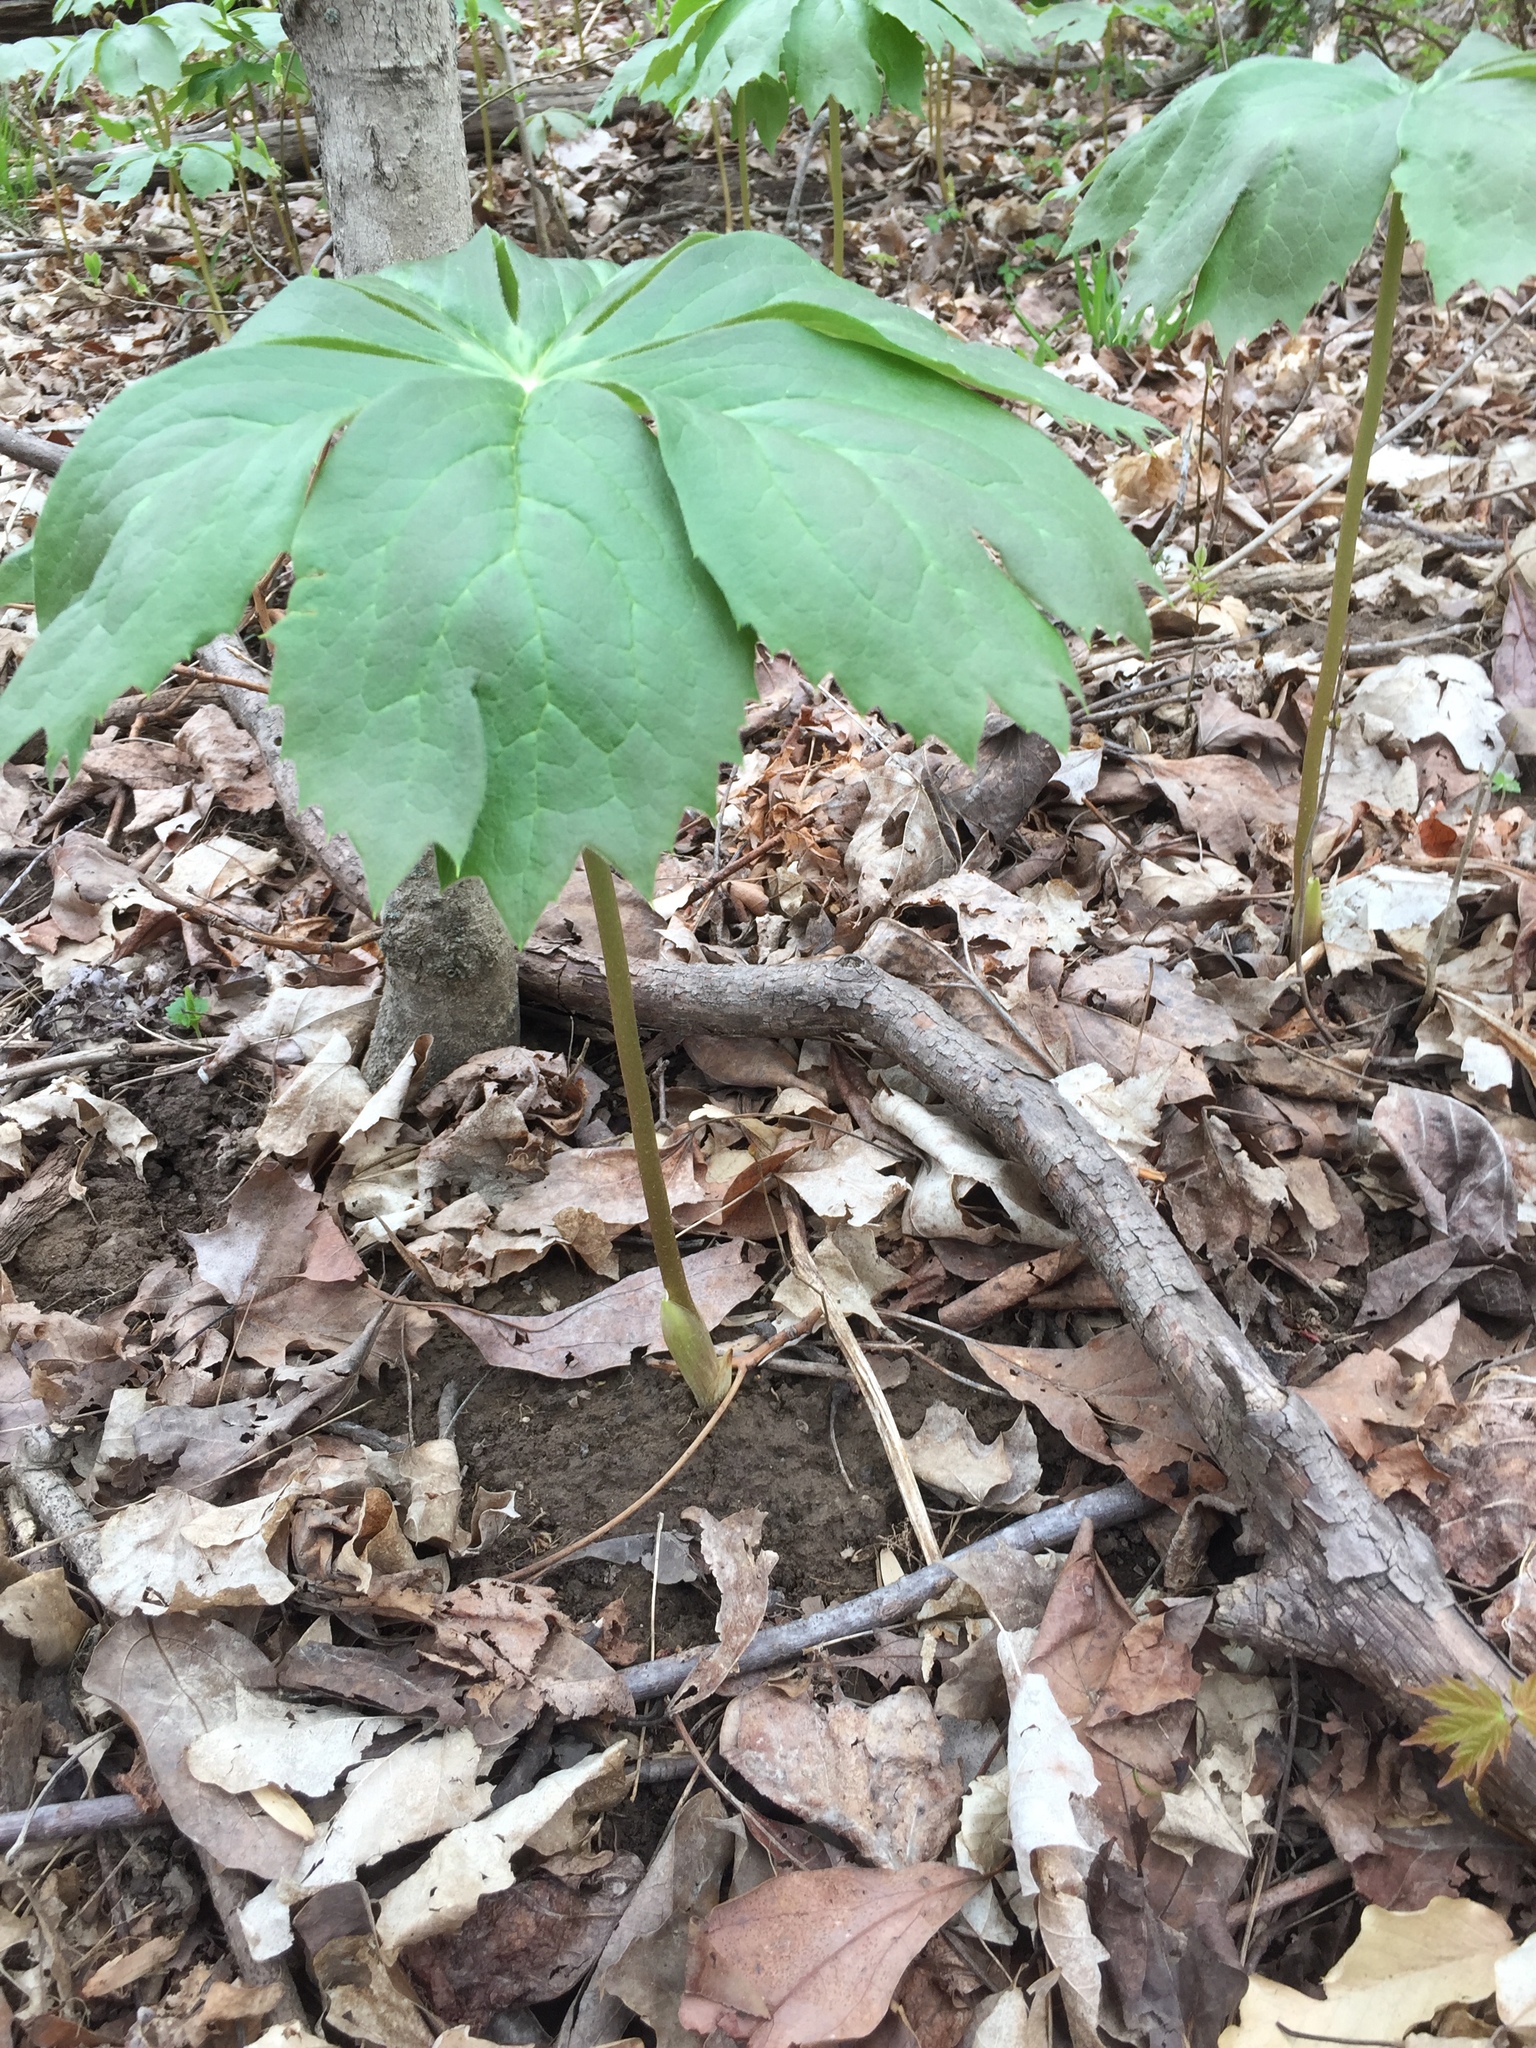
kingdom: Plantae
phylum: Tracheophyta
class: Magnoliopsida
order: Ranunculales
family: Berberidaceae
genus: Podophyllum
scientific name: Podophyllum peltatum
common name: Wild mandrake
